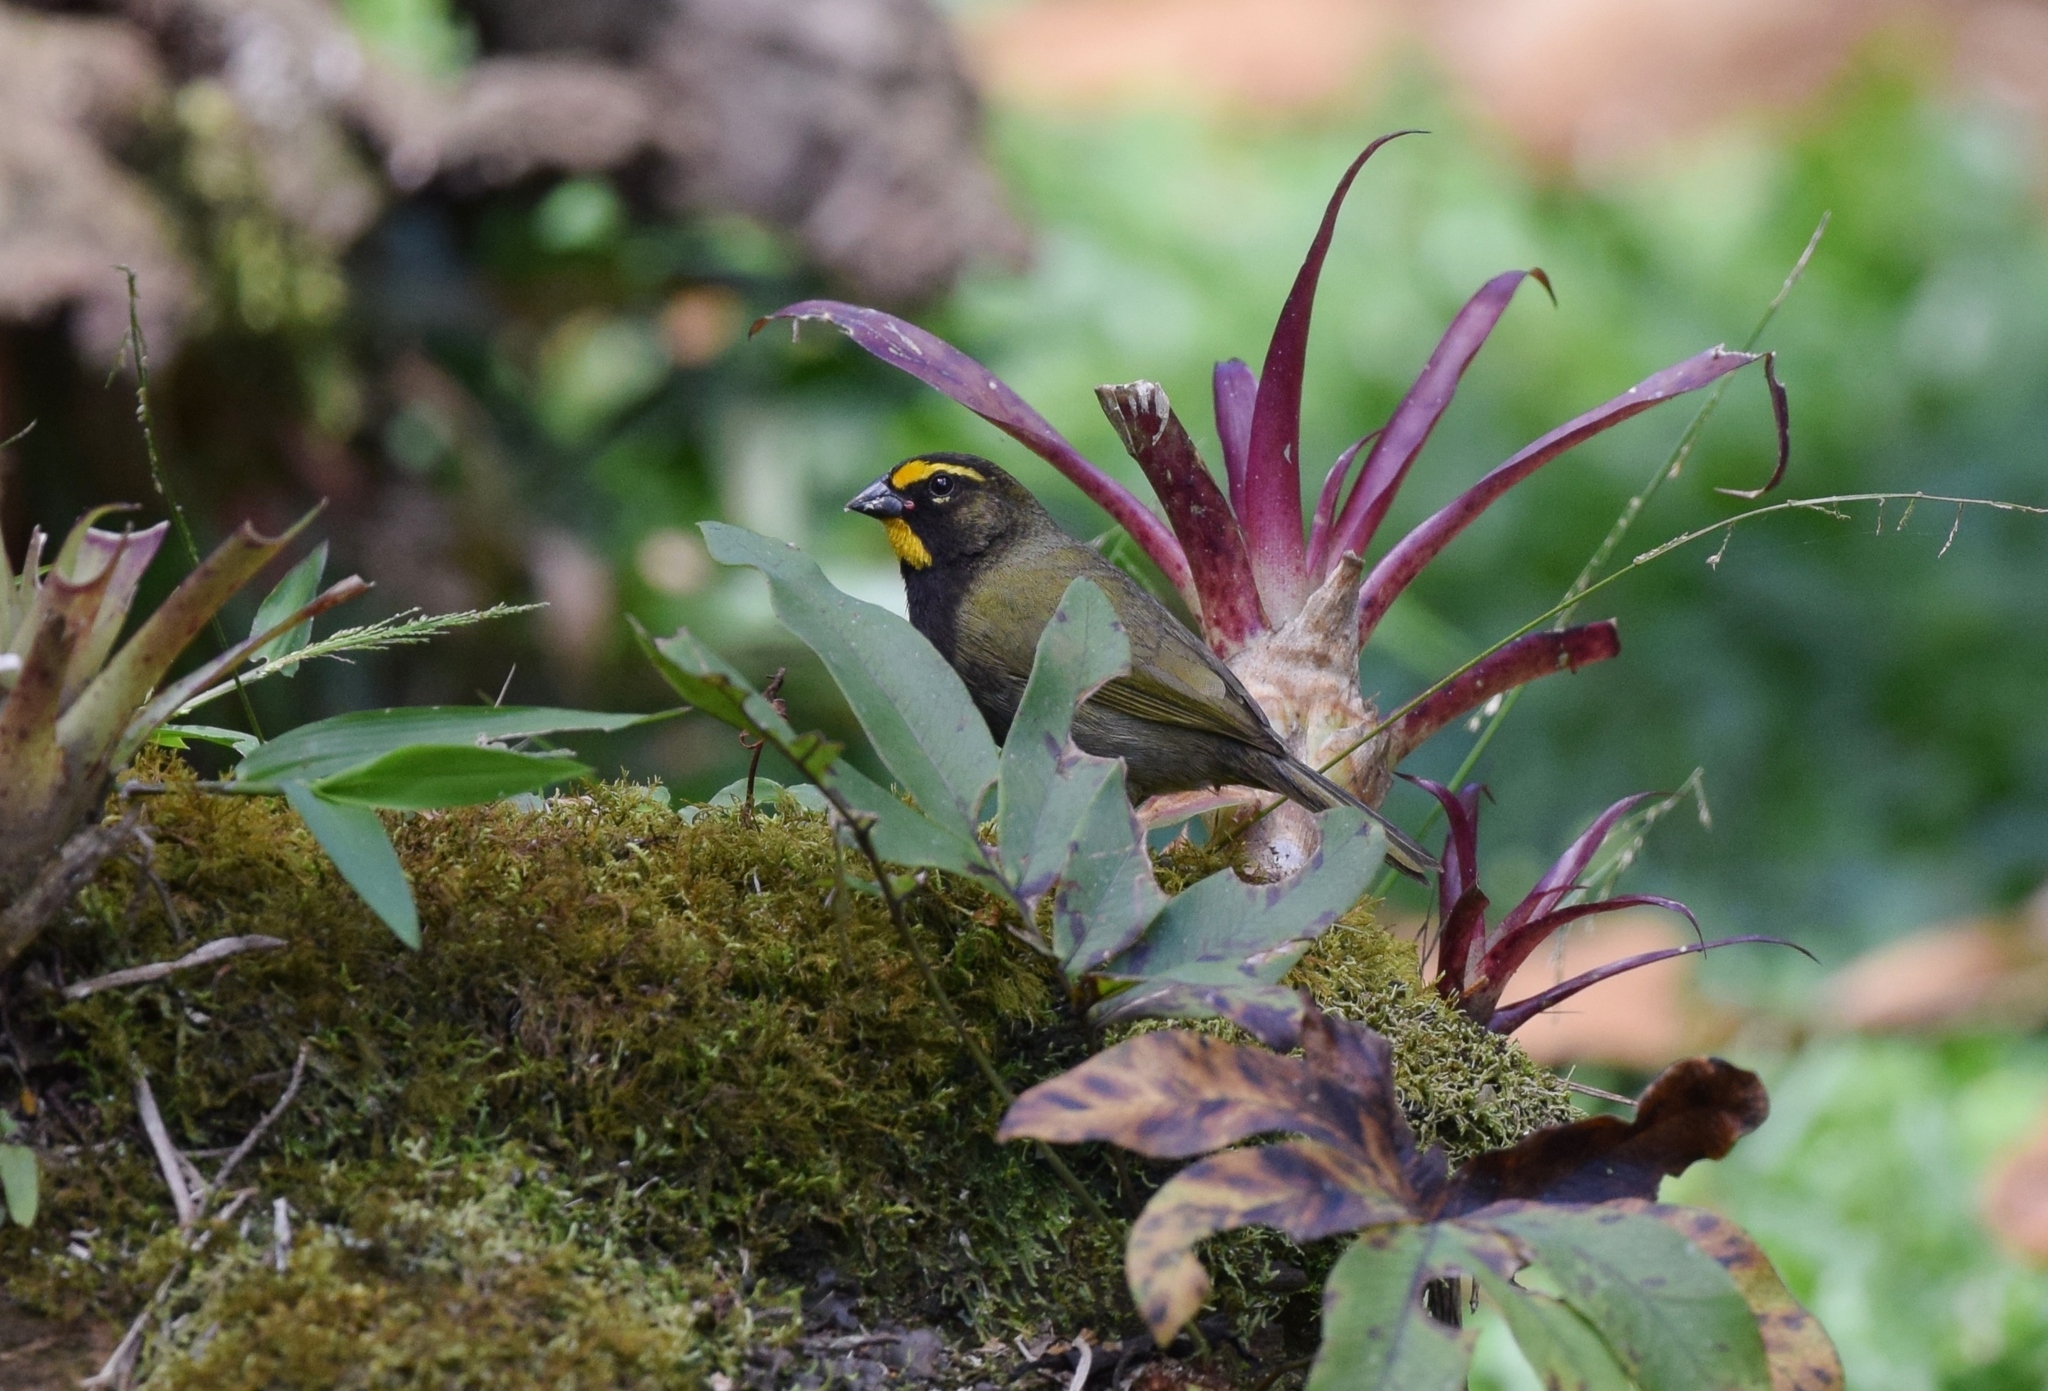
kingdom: Animalia
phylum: Chordata
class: Aves
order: Passeriformes
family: Thraupidae
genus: Tiaris
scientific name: Tiaris olivaceus
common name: Yellow-faced grassquit
